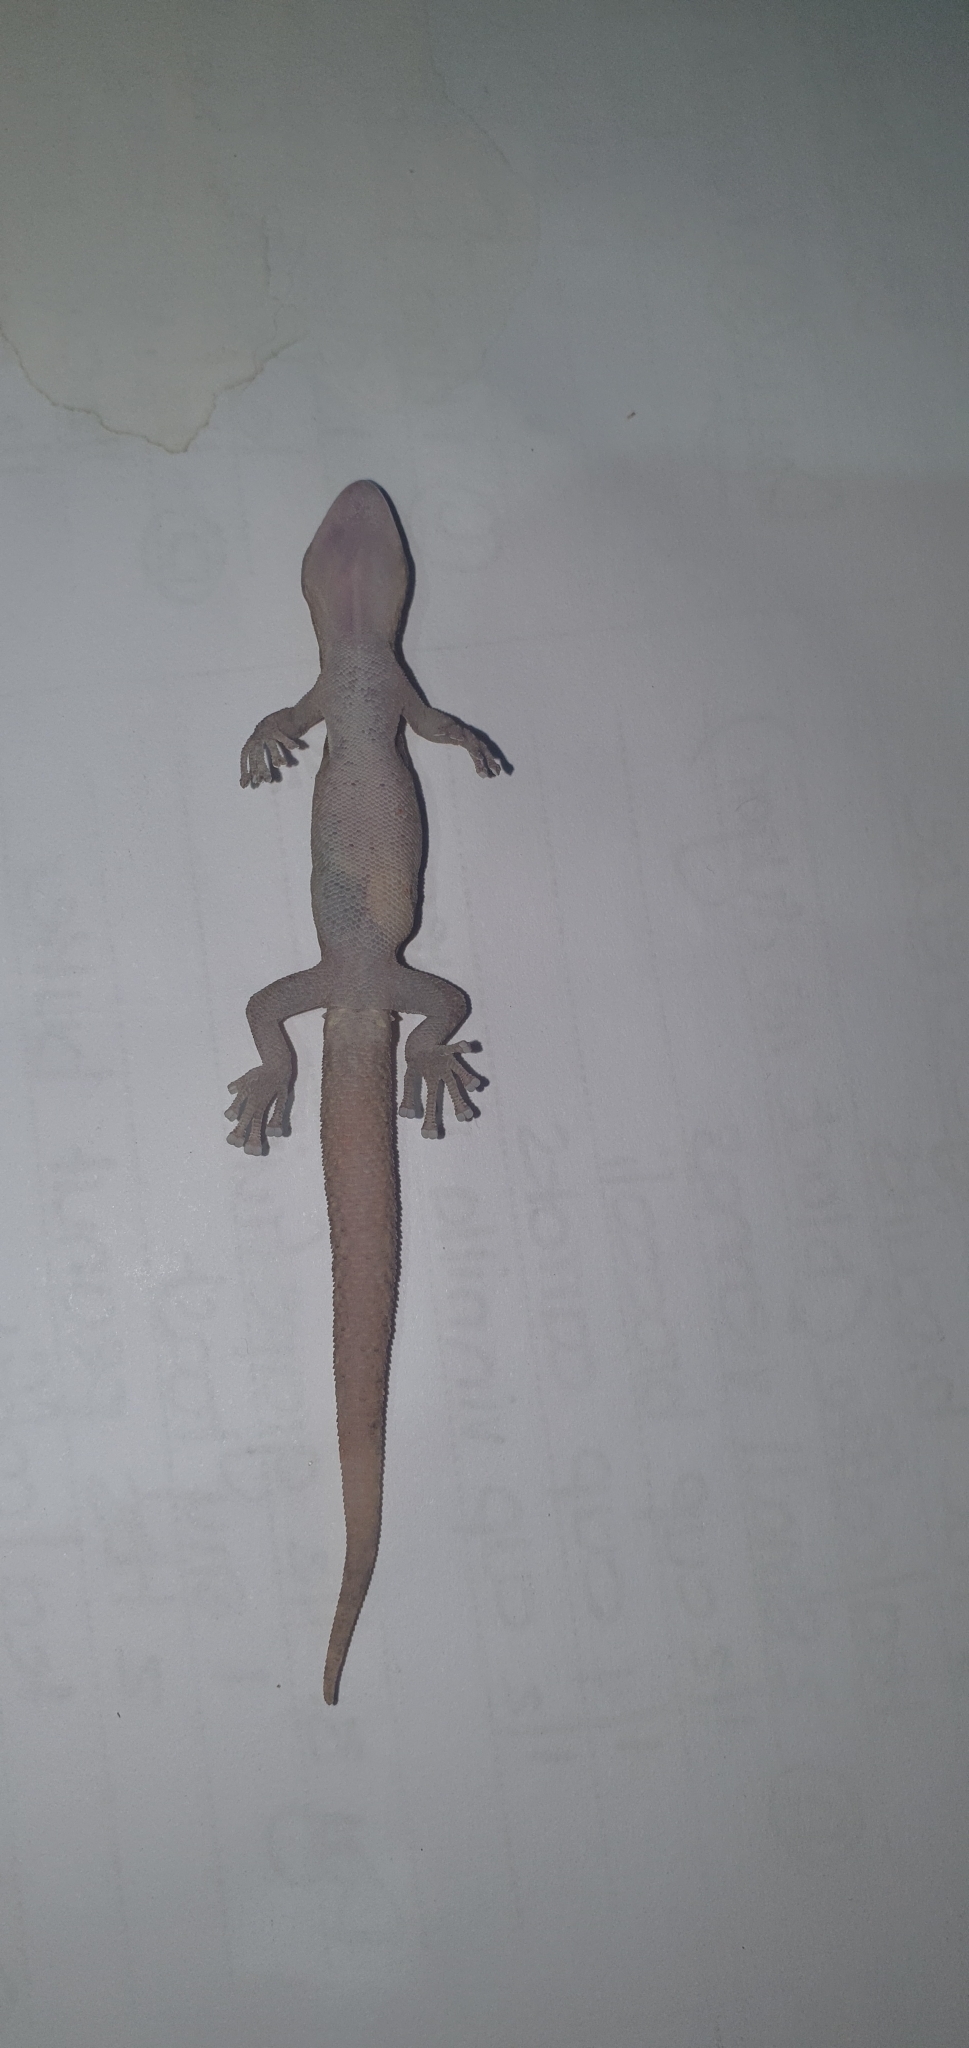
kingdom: Animalia
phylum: Chordata
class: Squamata
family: Gekkonidae
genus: Afrogecko
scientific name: Afrogecko porphyreus
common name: Marbled leaf-toed gecko
